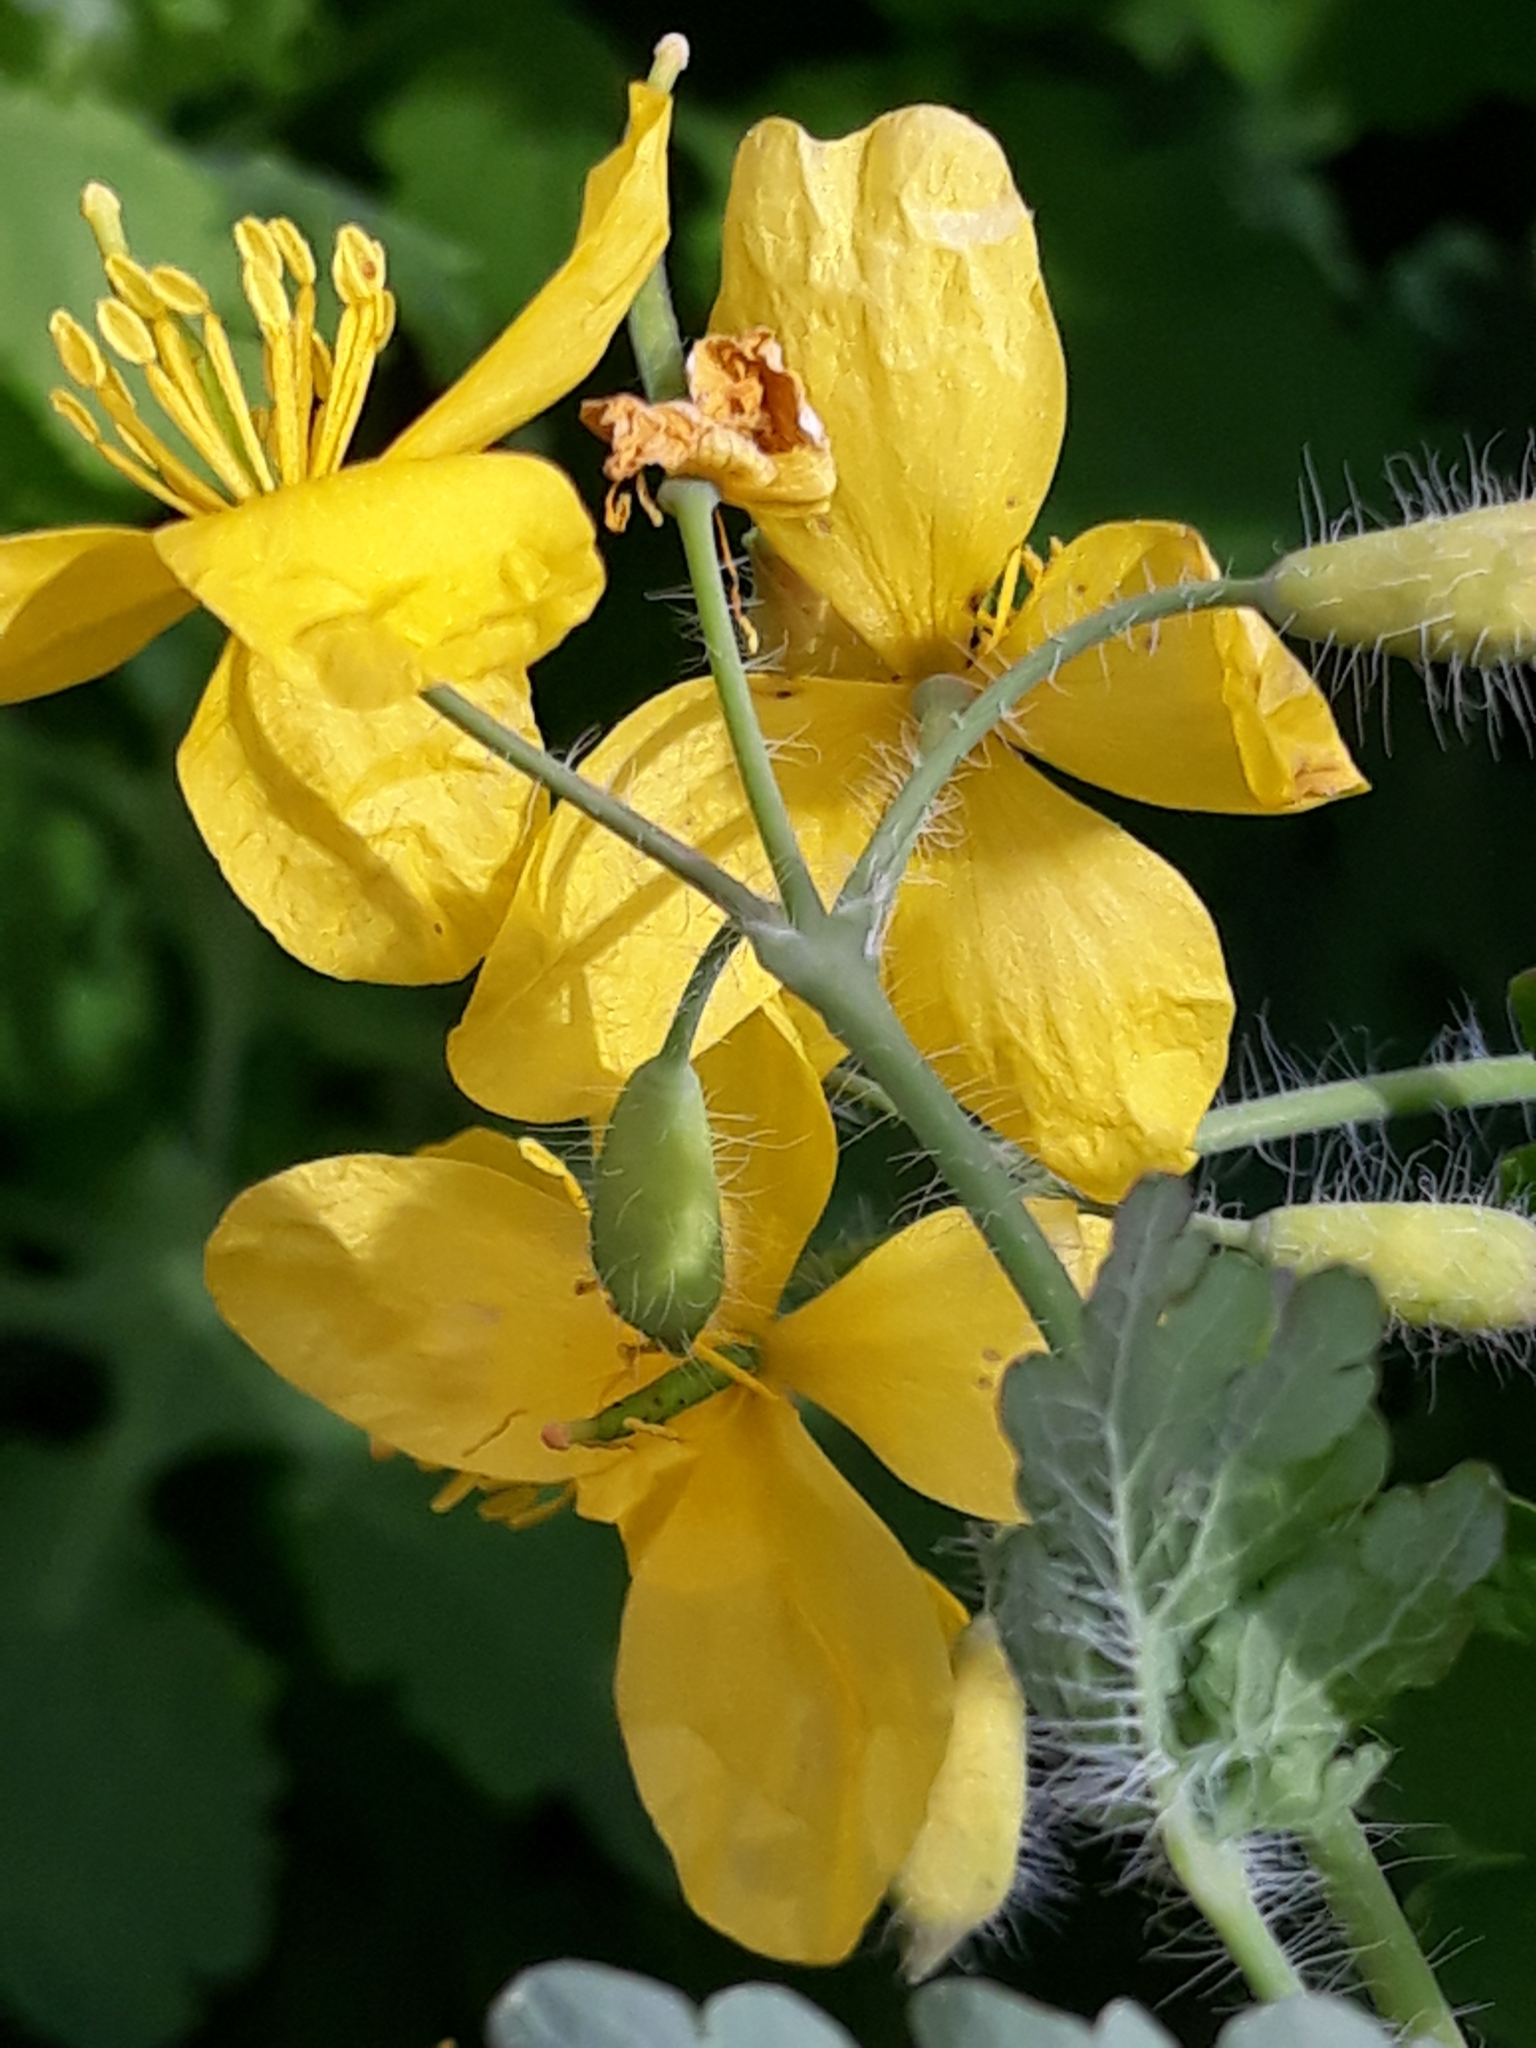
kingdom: Plantae
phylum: Tracheophyta
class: Magnoliopsida
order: Ranunculales
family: Papaveraceae
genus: Chelidonium
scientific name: Chelidonium majus
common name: Greater celandine
